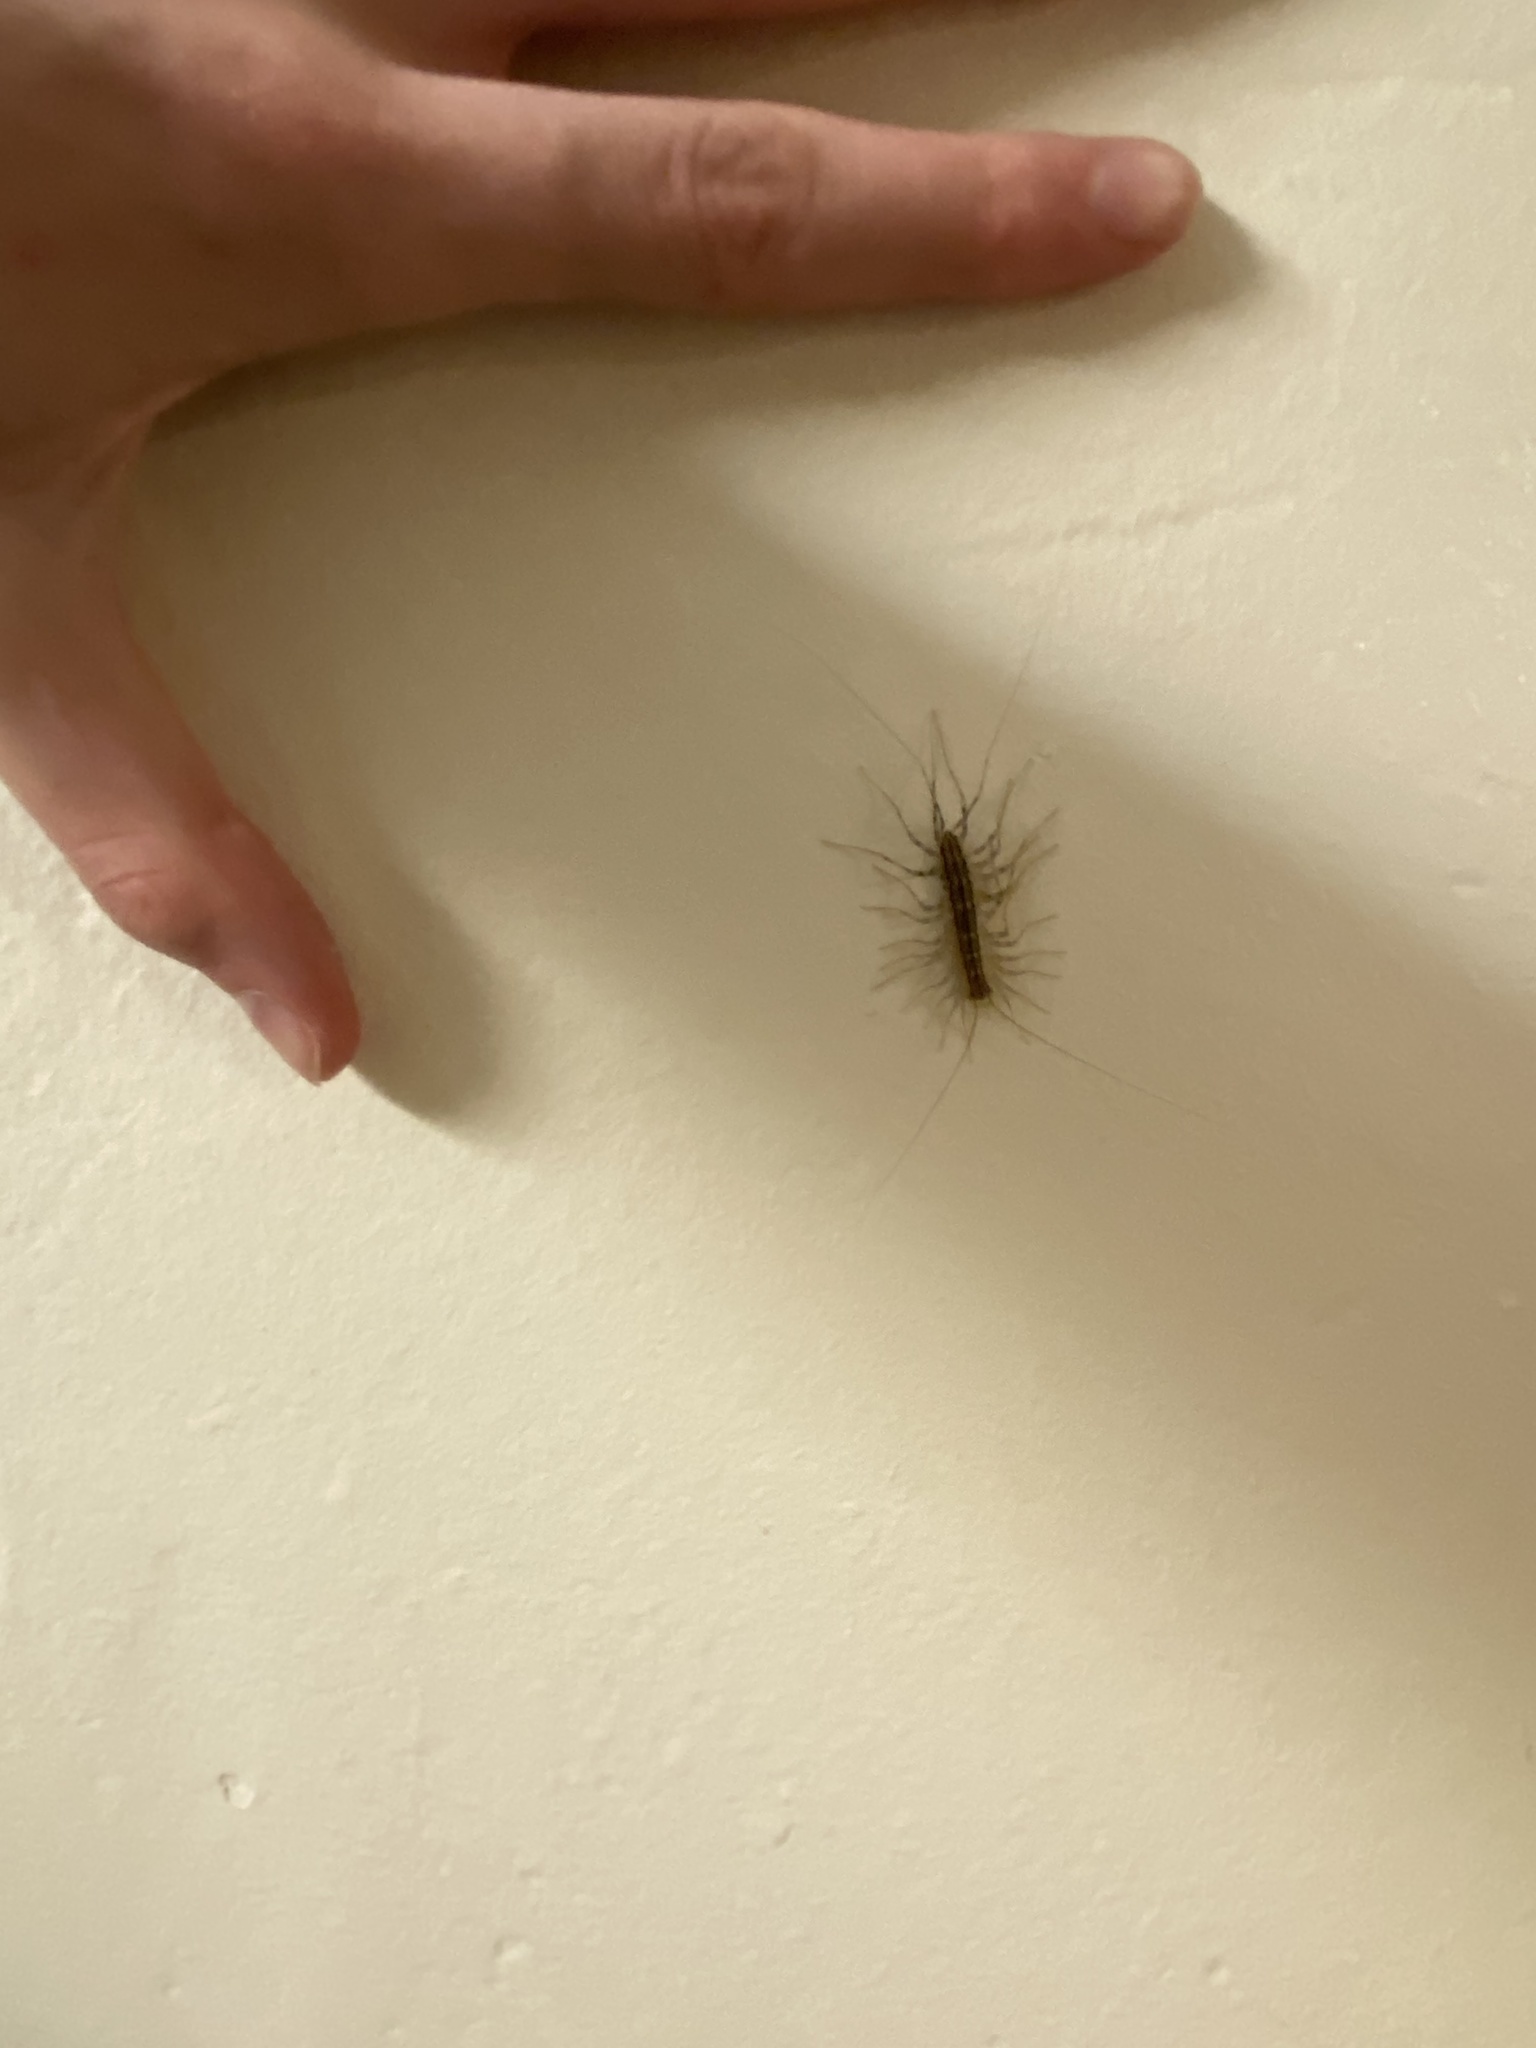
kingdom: Animalia
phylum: Arthropoda
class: Chilopoda
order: Scutigeromorpha
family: Scutigeridae
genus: Scutigera
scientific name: Scutigera coleoptrata
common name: House centipede
